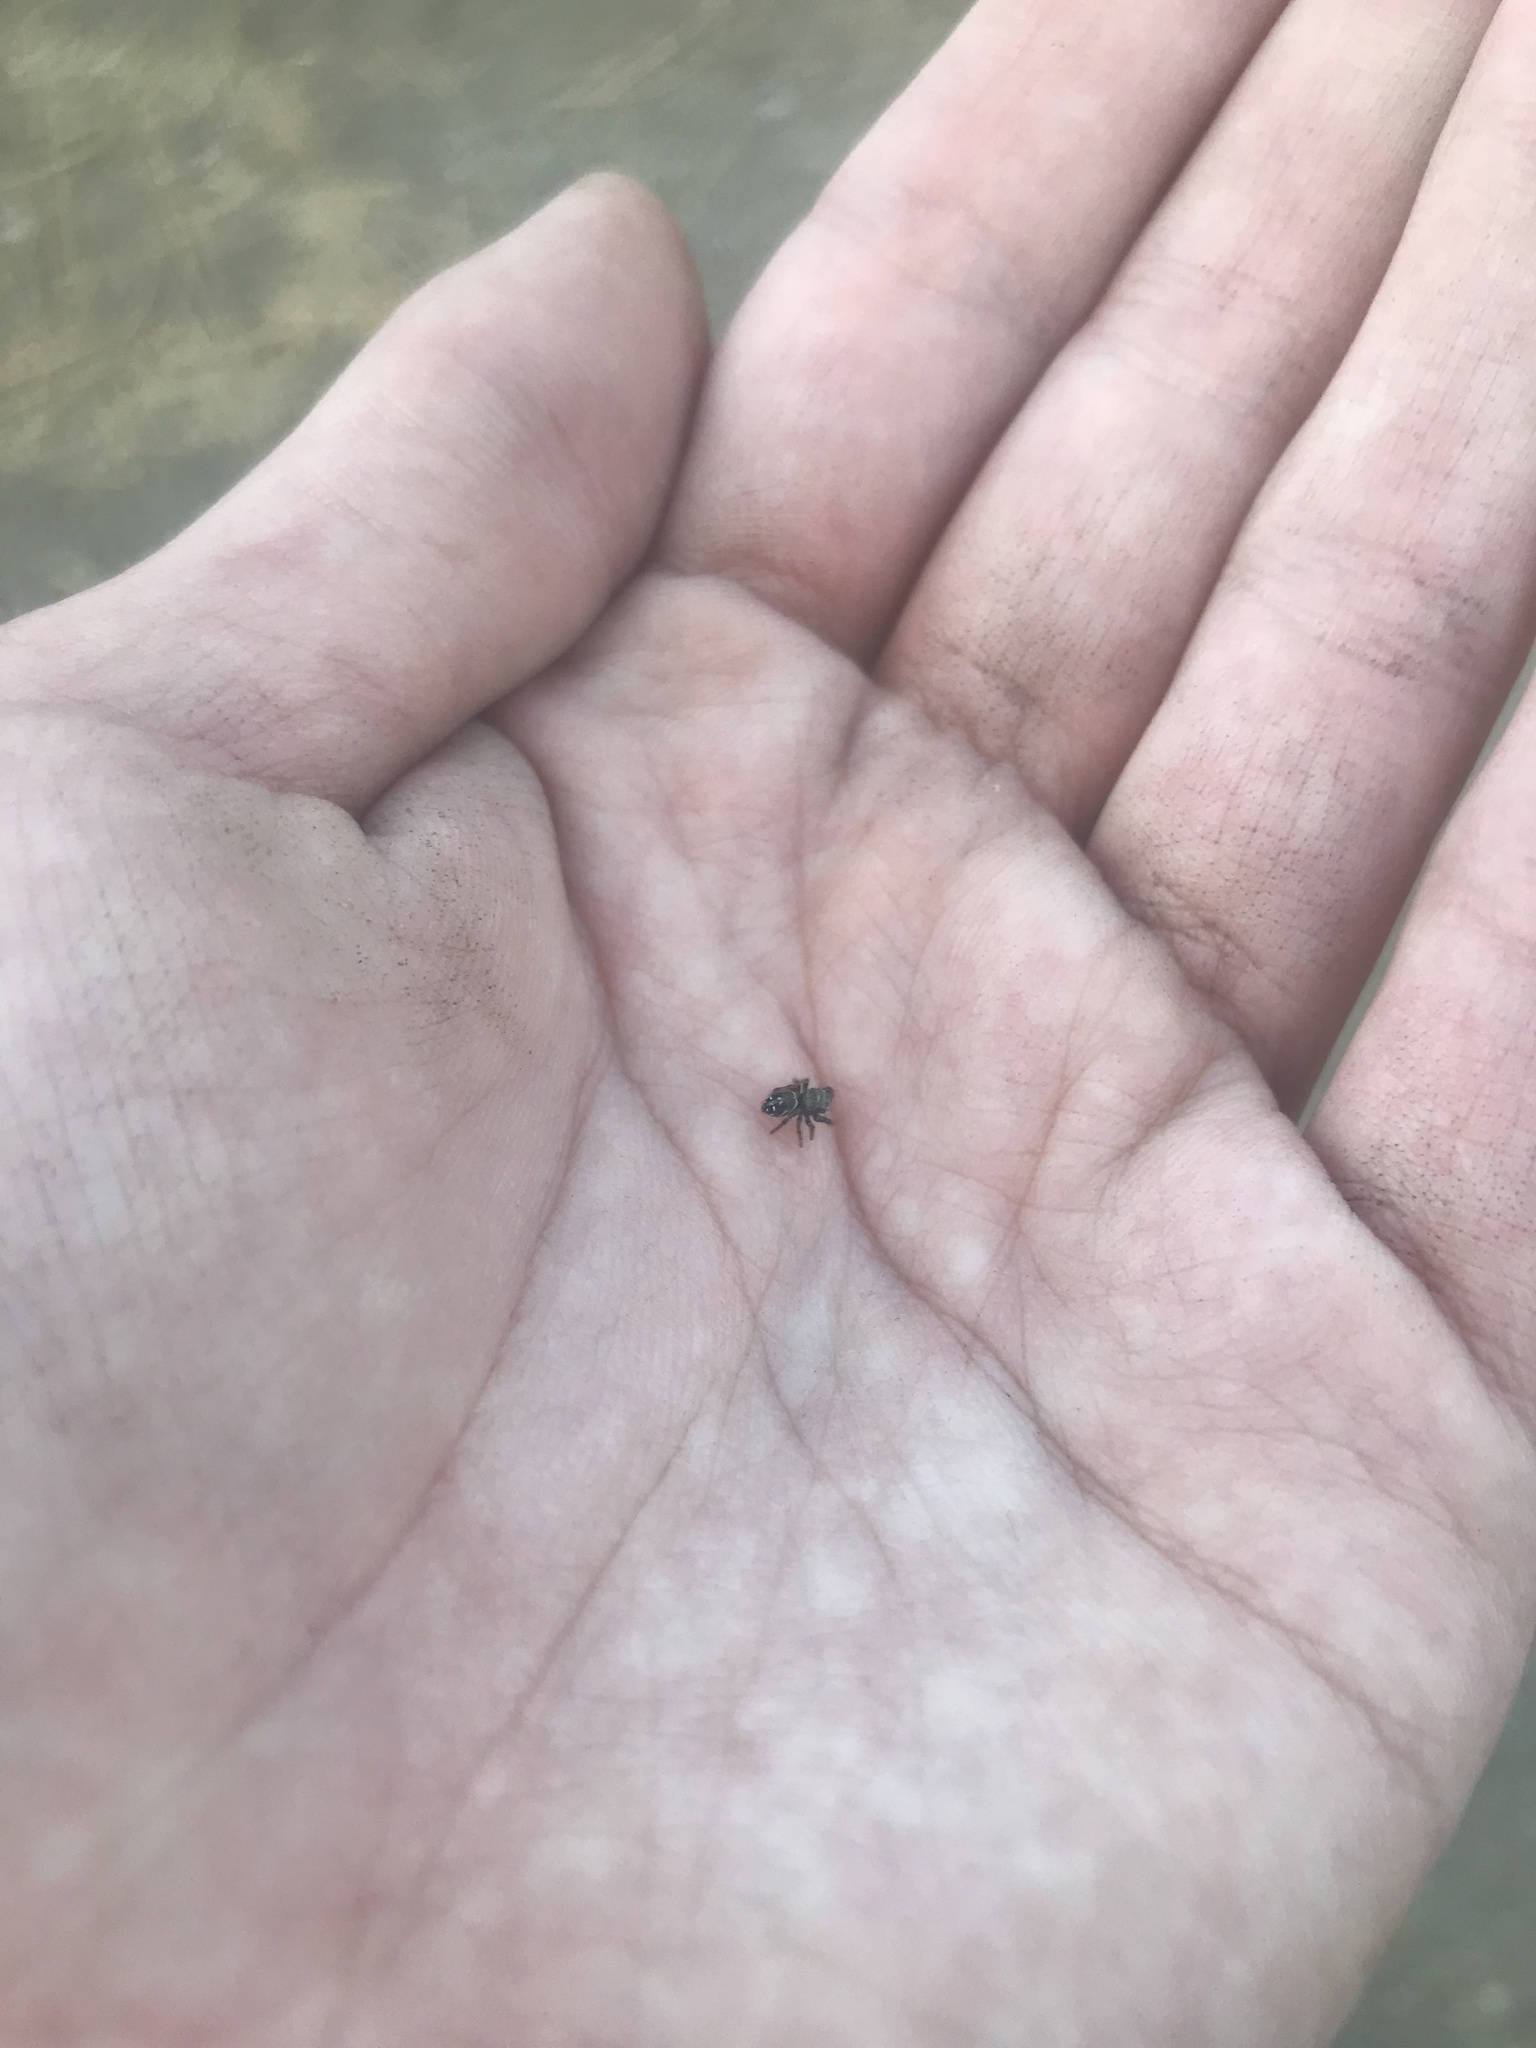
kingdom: Animalia
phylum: Arthropoda
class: Arachnida
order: Araneae
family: Salticidae
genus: Phidippus
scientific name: Phidippus johnsoni
